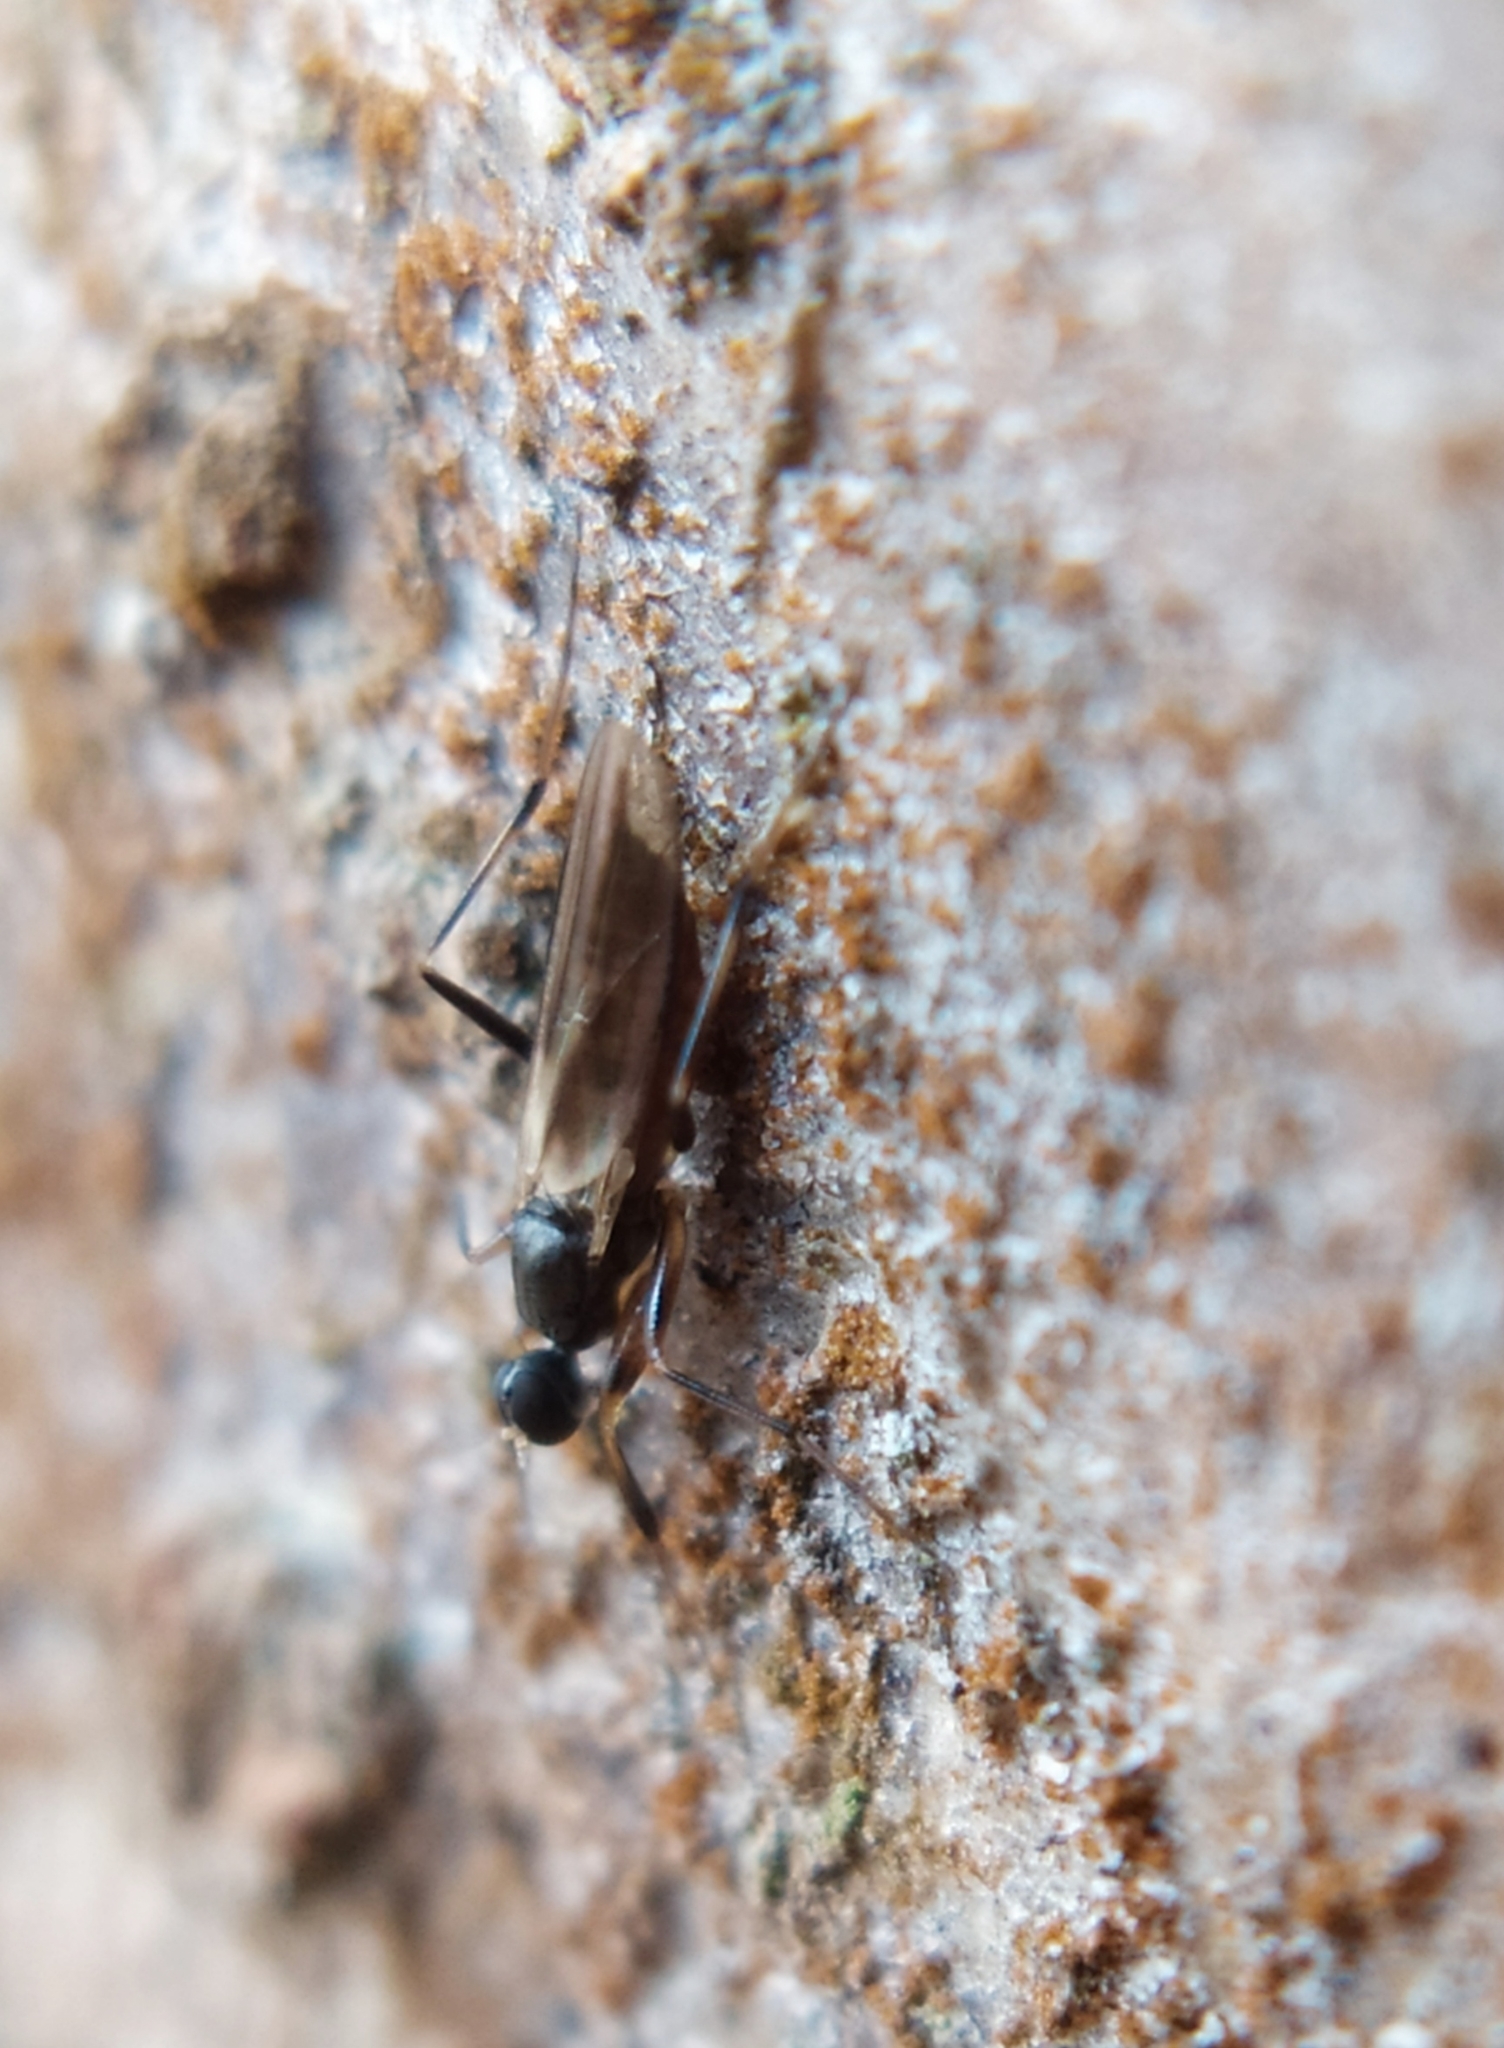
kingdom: Animalia
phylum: Arthropoda
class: Insecta
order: Diptera
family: Hybotidae
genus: Tachypeza
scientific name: Tachypeza nubila
